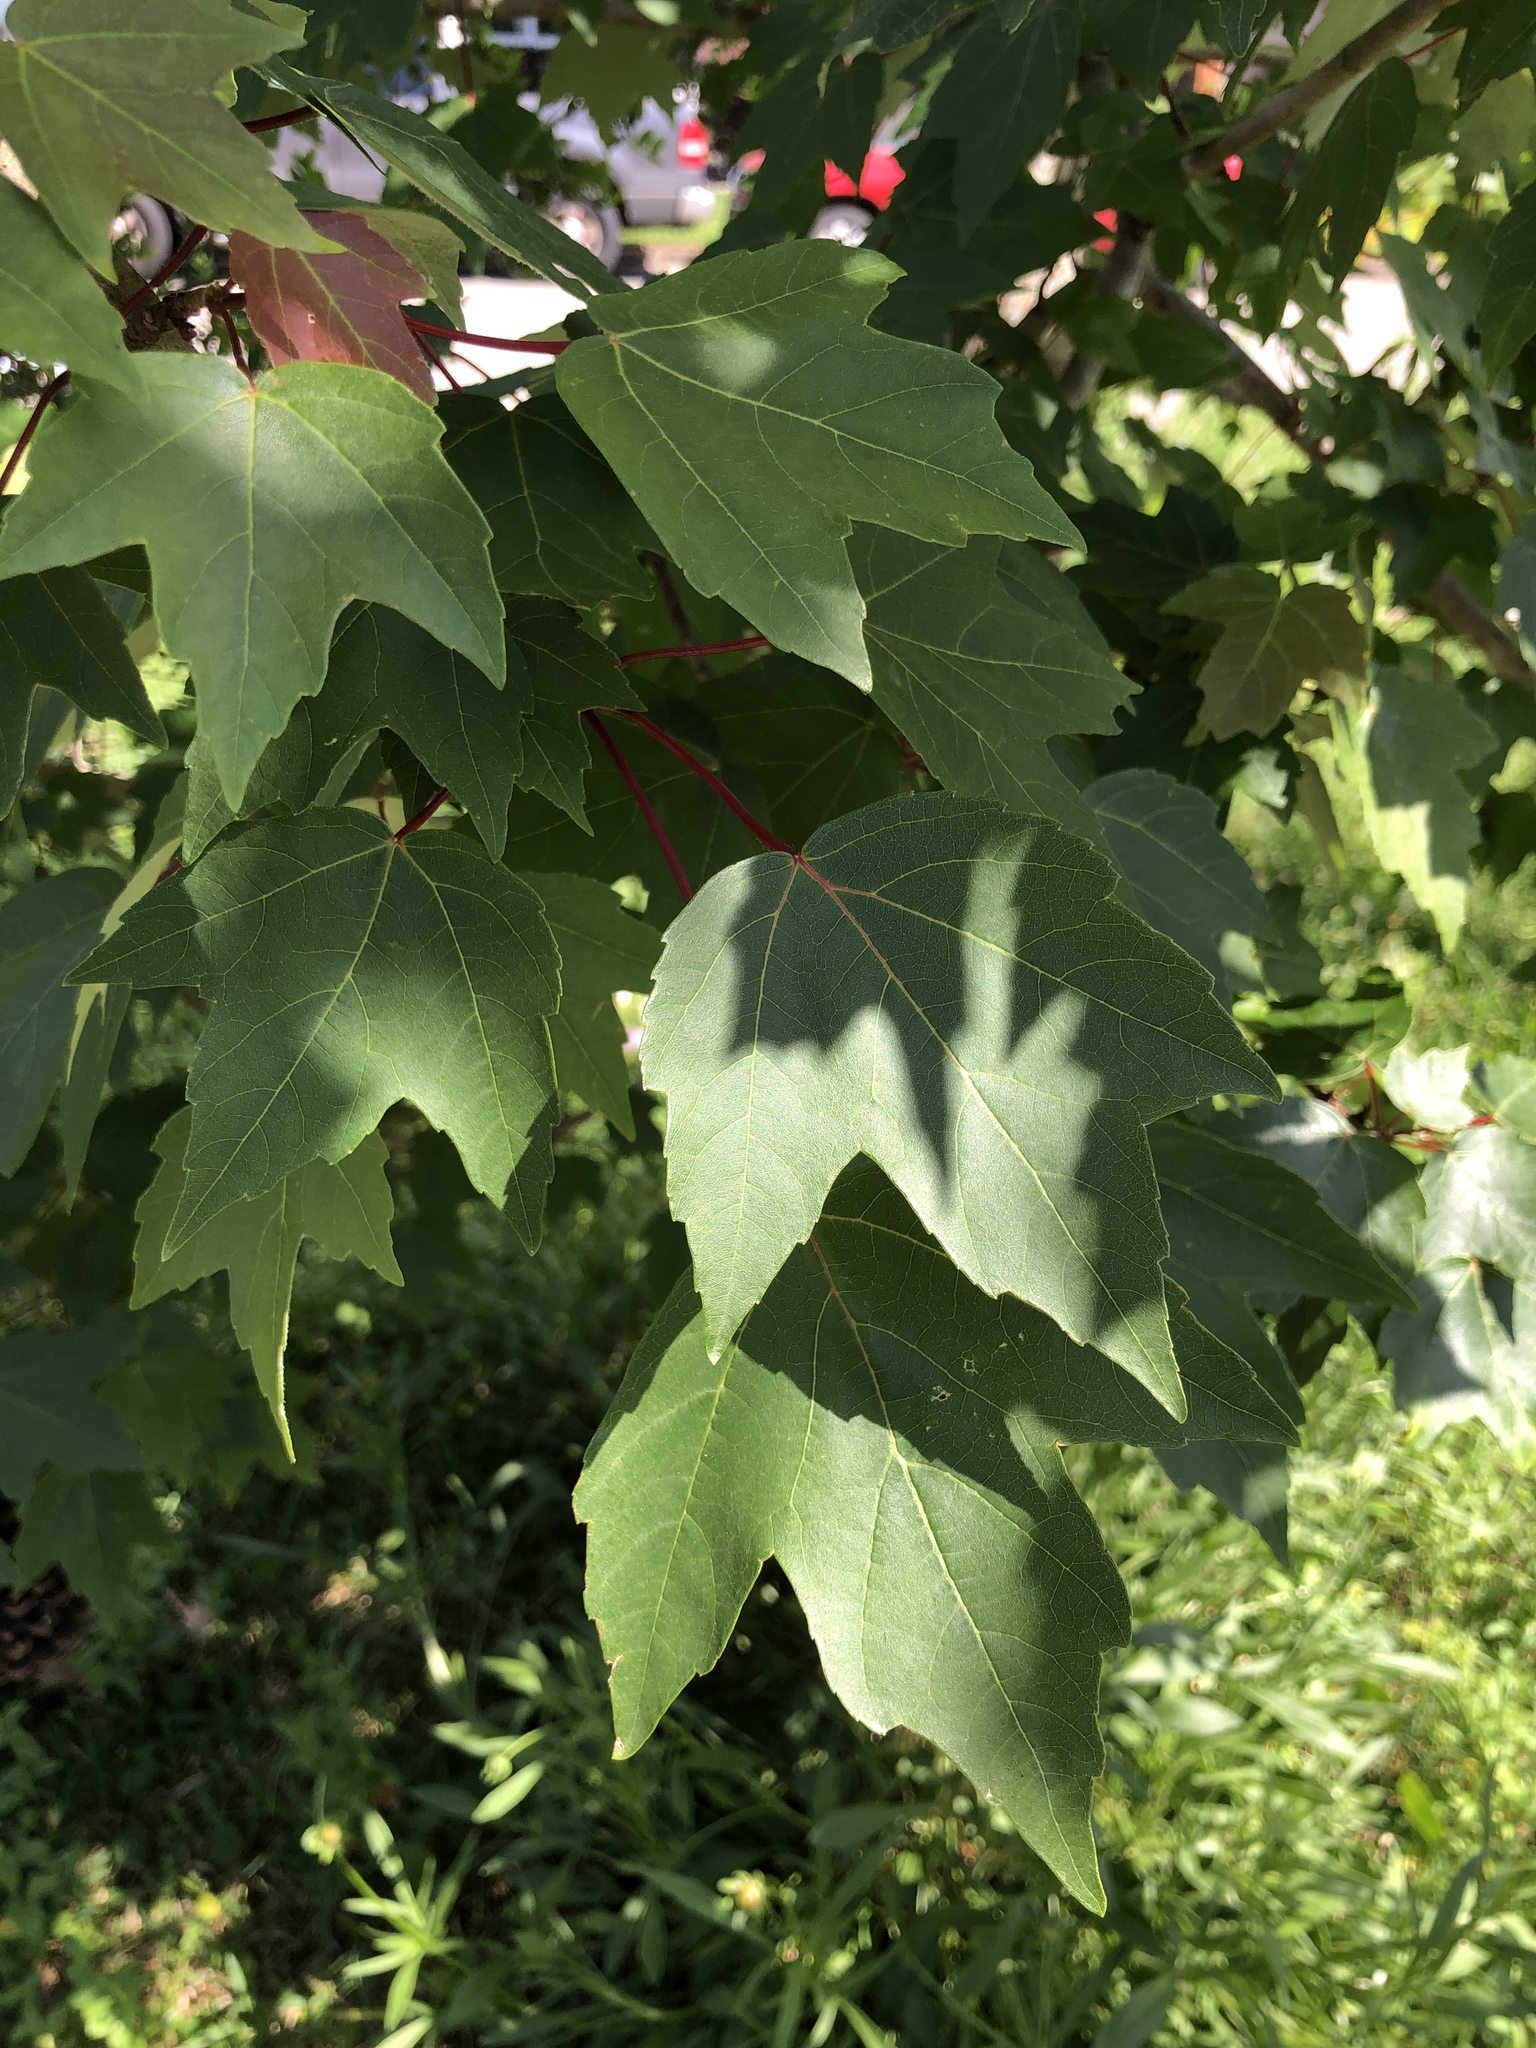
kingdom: Plantae
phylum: Tracheophyta
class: Magnoliopsida
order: Sapindales
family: Sapindaceae
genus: Acer
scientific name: Acer rubrum
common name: Red maple
